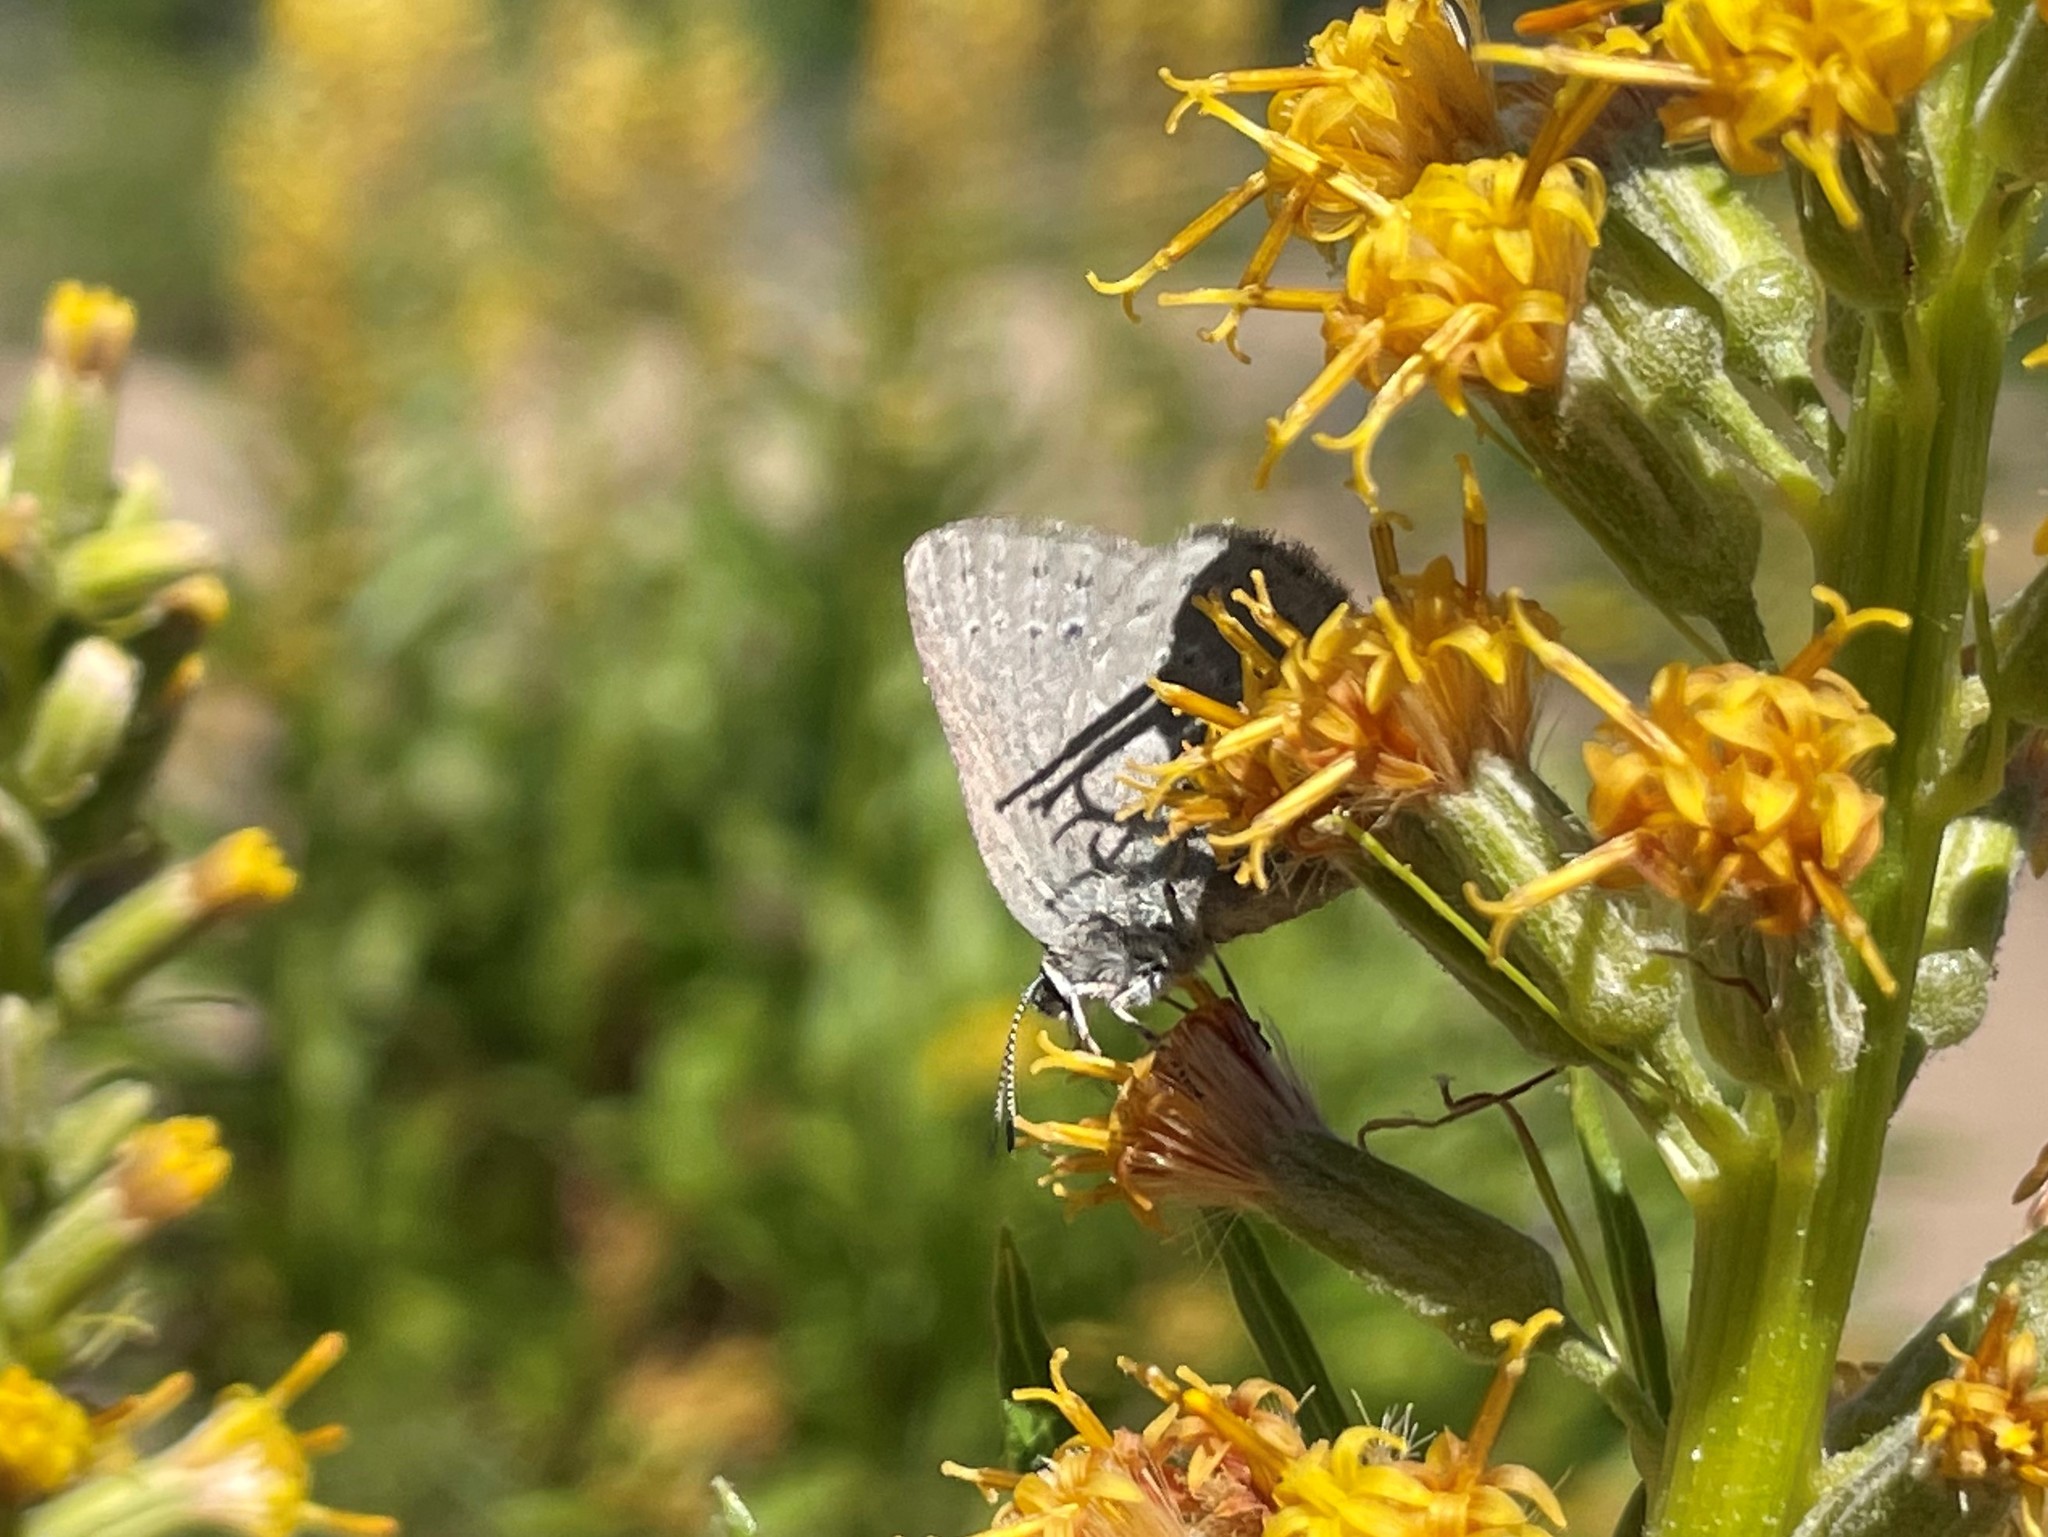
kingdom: Animalia
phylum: Arthropoda
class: Insecta
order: Lepidoptera
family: Lycaenidae
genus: Satyrium
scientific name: Satyrium fuliginosa
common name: Western sooty hairstreak
